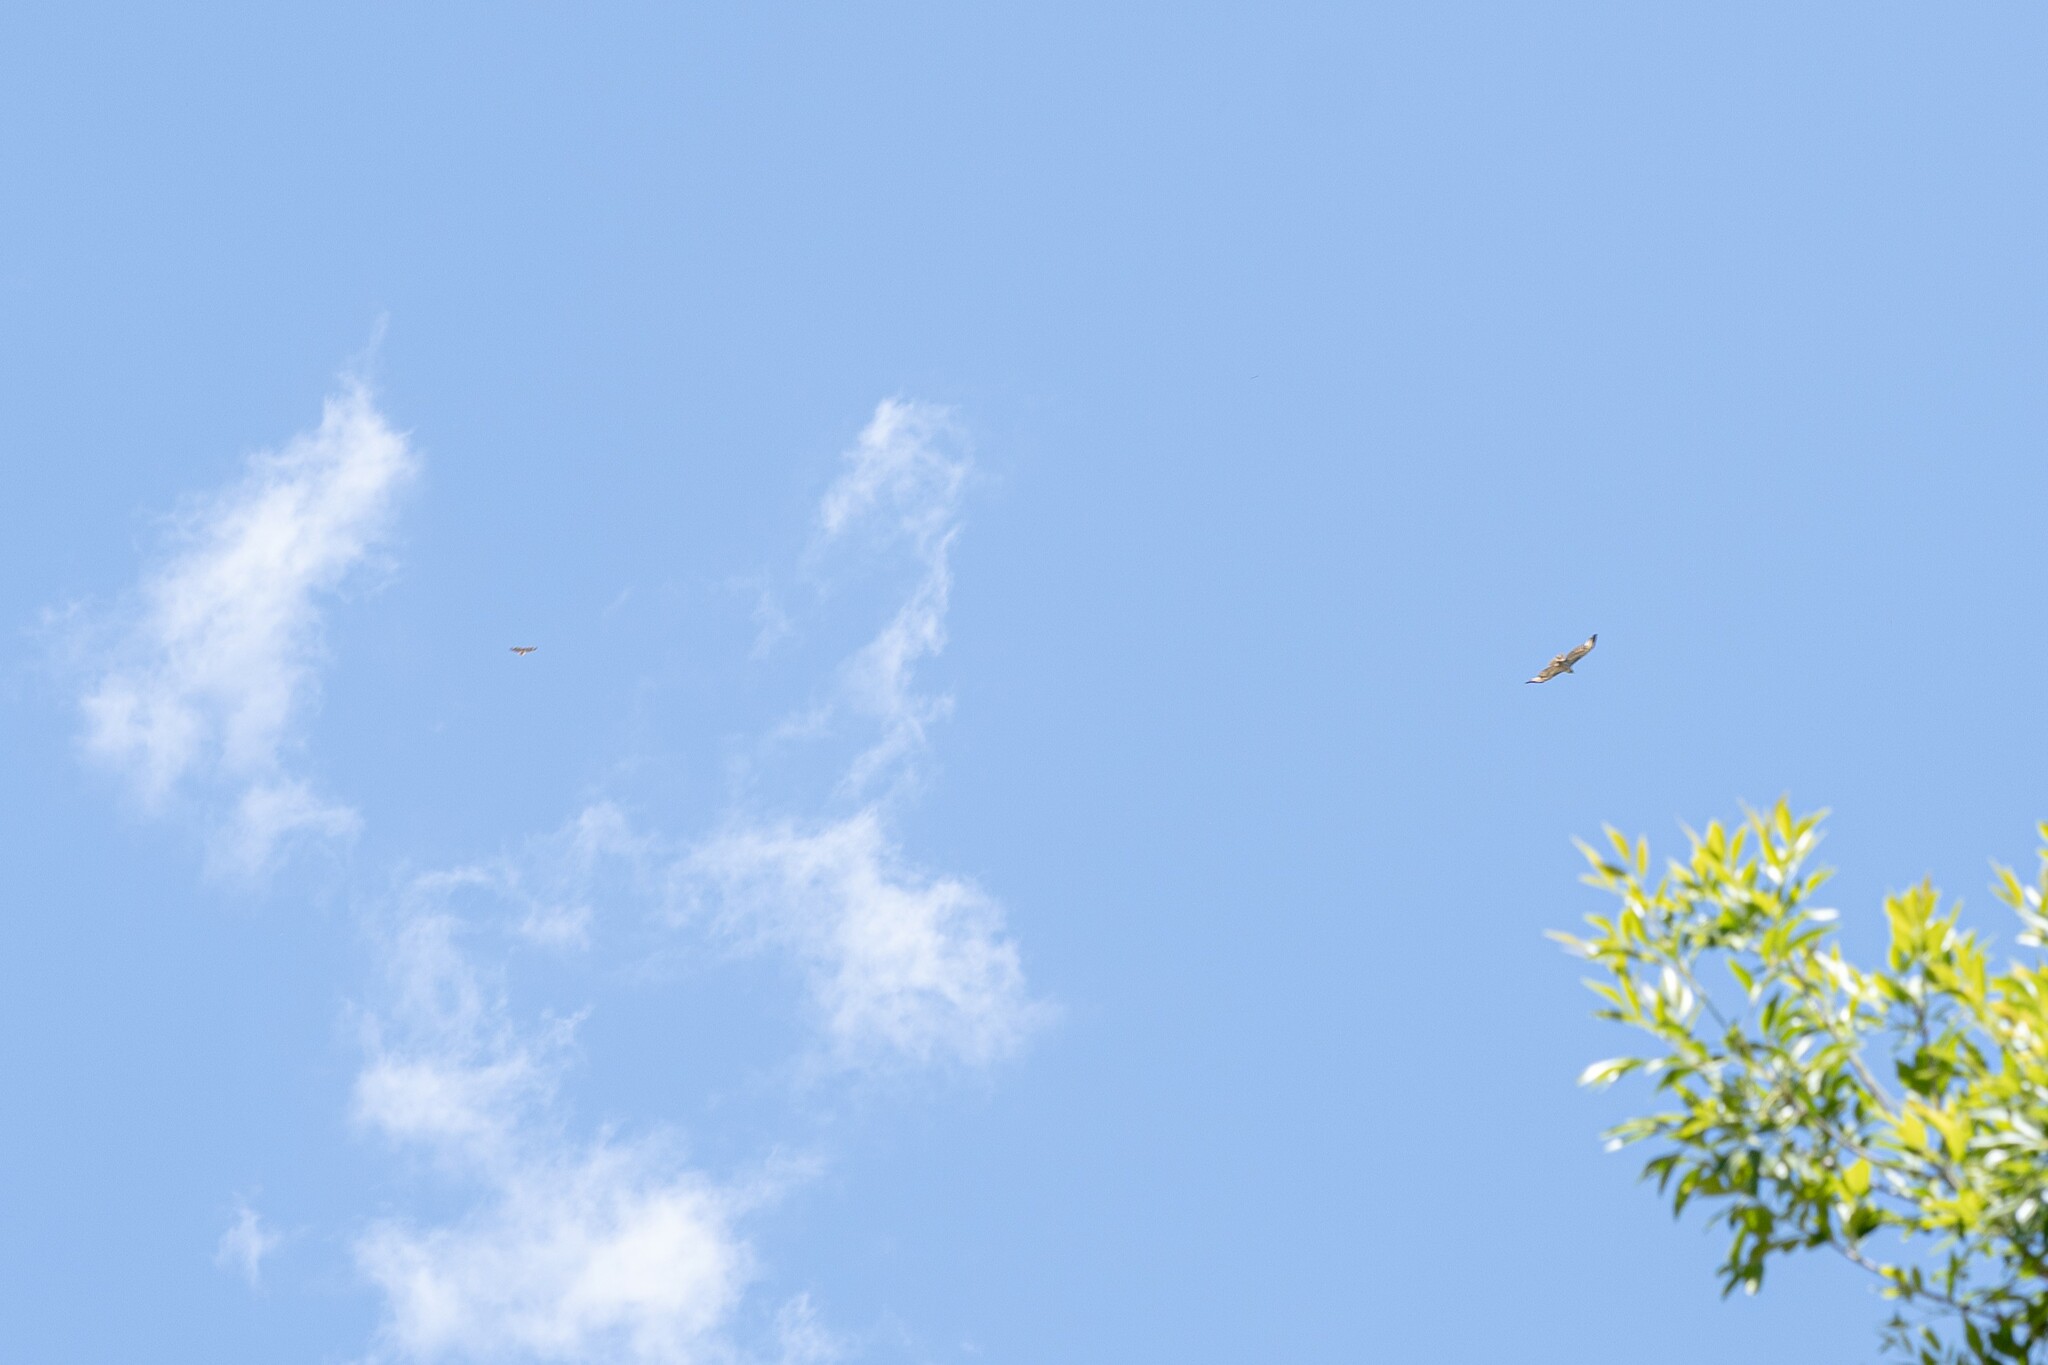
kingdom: Animalia
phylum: Chordata
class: Aves
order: Accipitriformes
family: Accipitridae
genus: Buteo
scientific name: Buteo jamaicensis
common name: Red-tailed hawk
